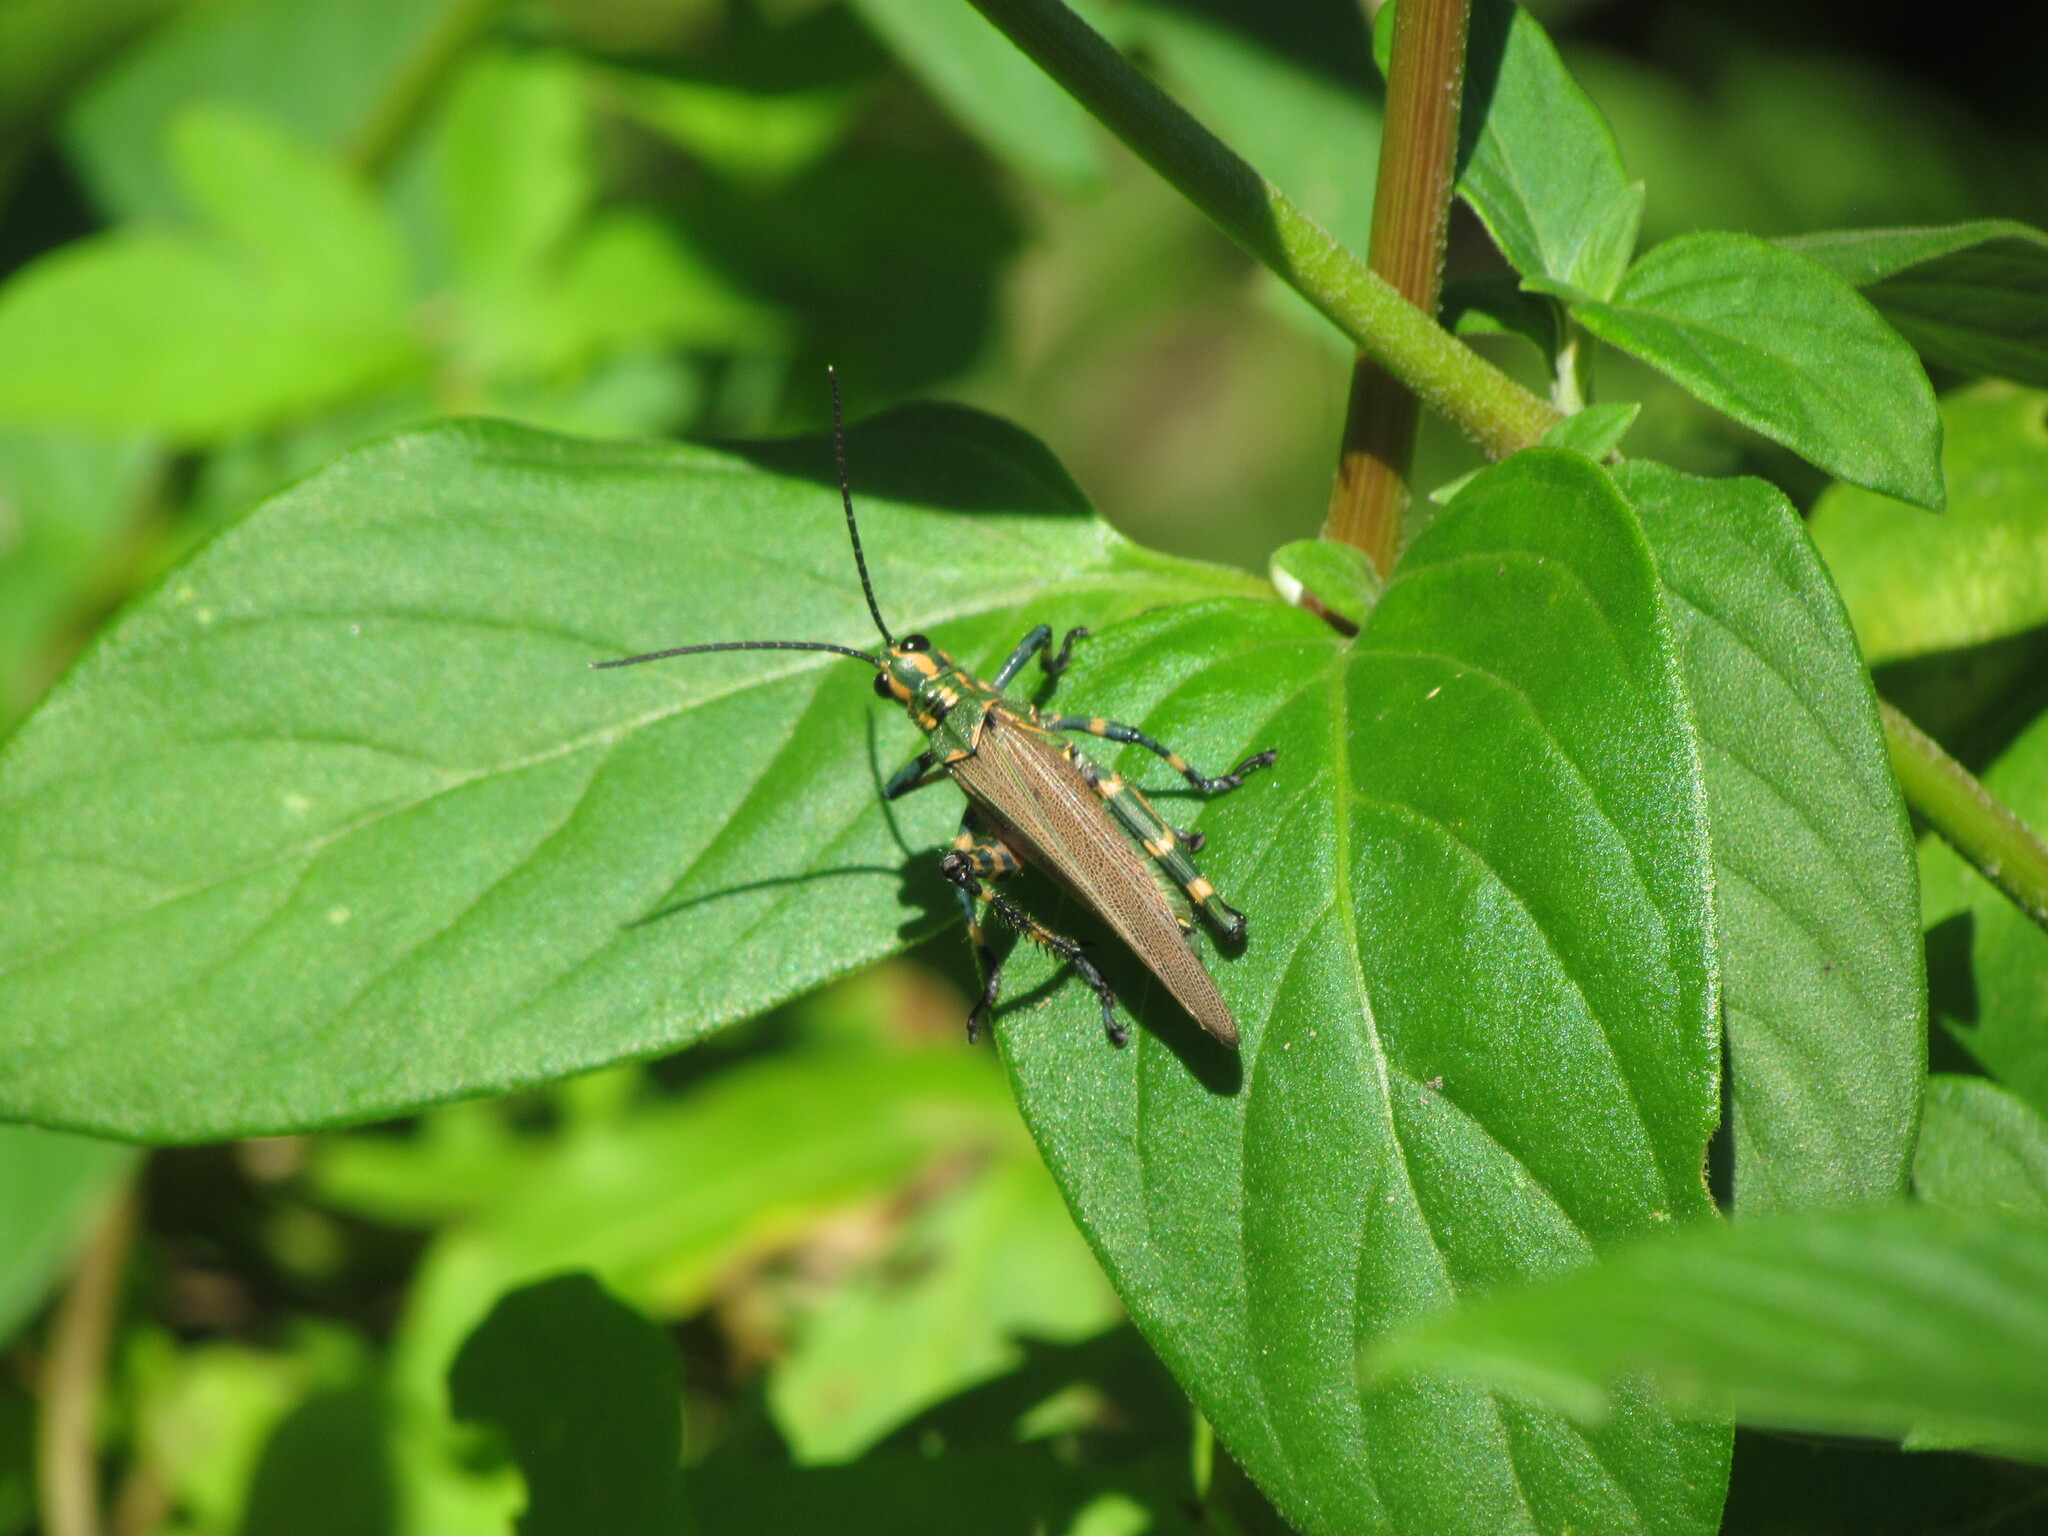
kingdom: Animalia
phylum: Arthropoda
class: Insecta
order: Orthoptera
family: Romaleidae
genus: Chromacris
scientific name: Chromacris speciosa
